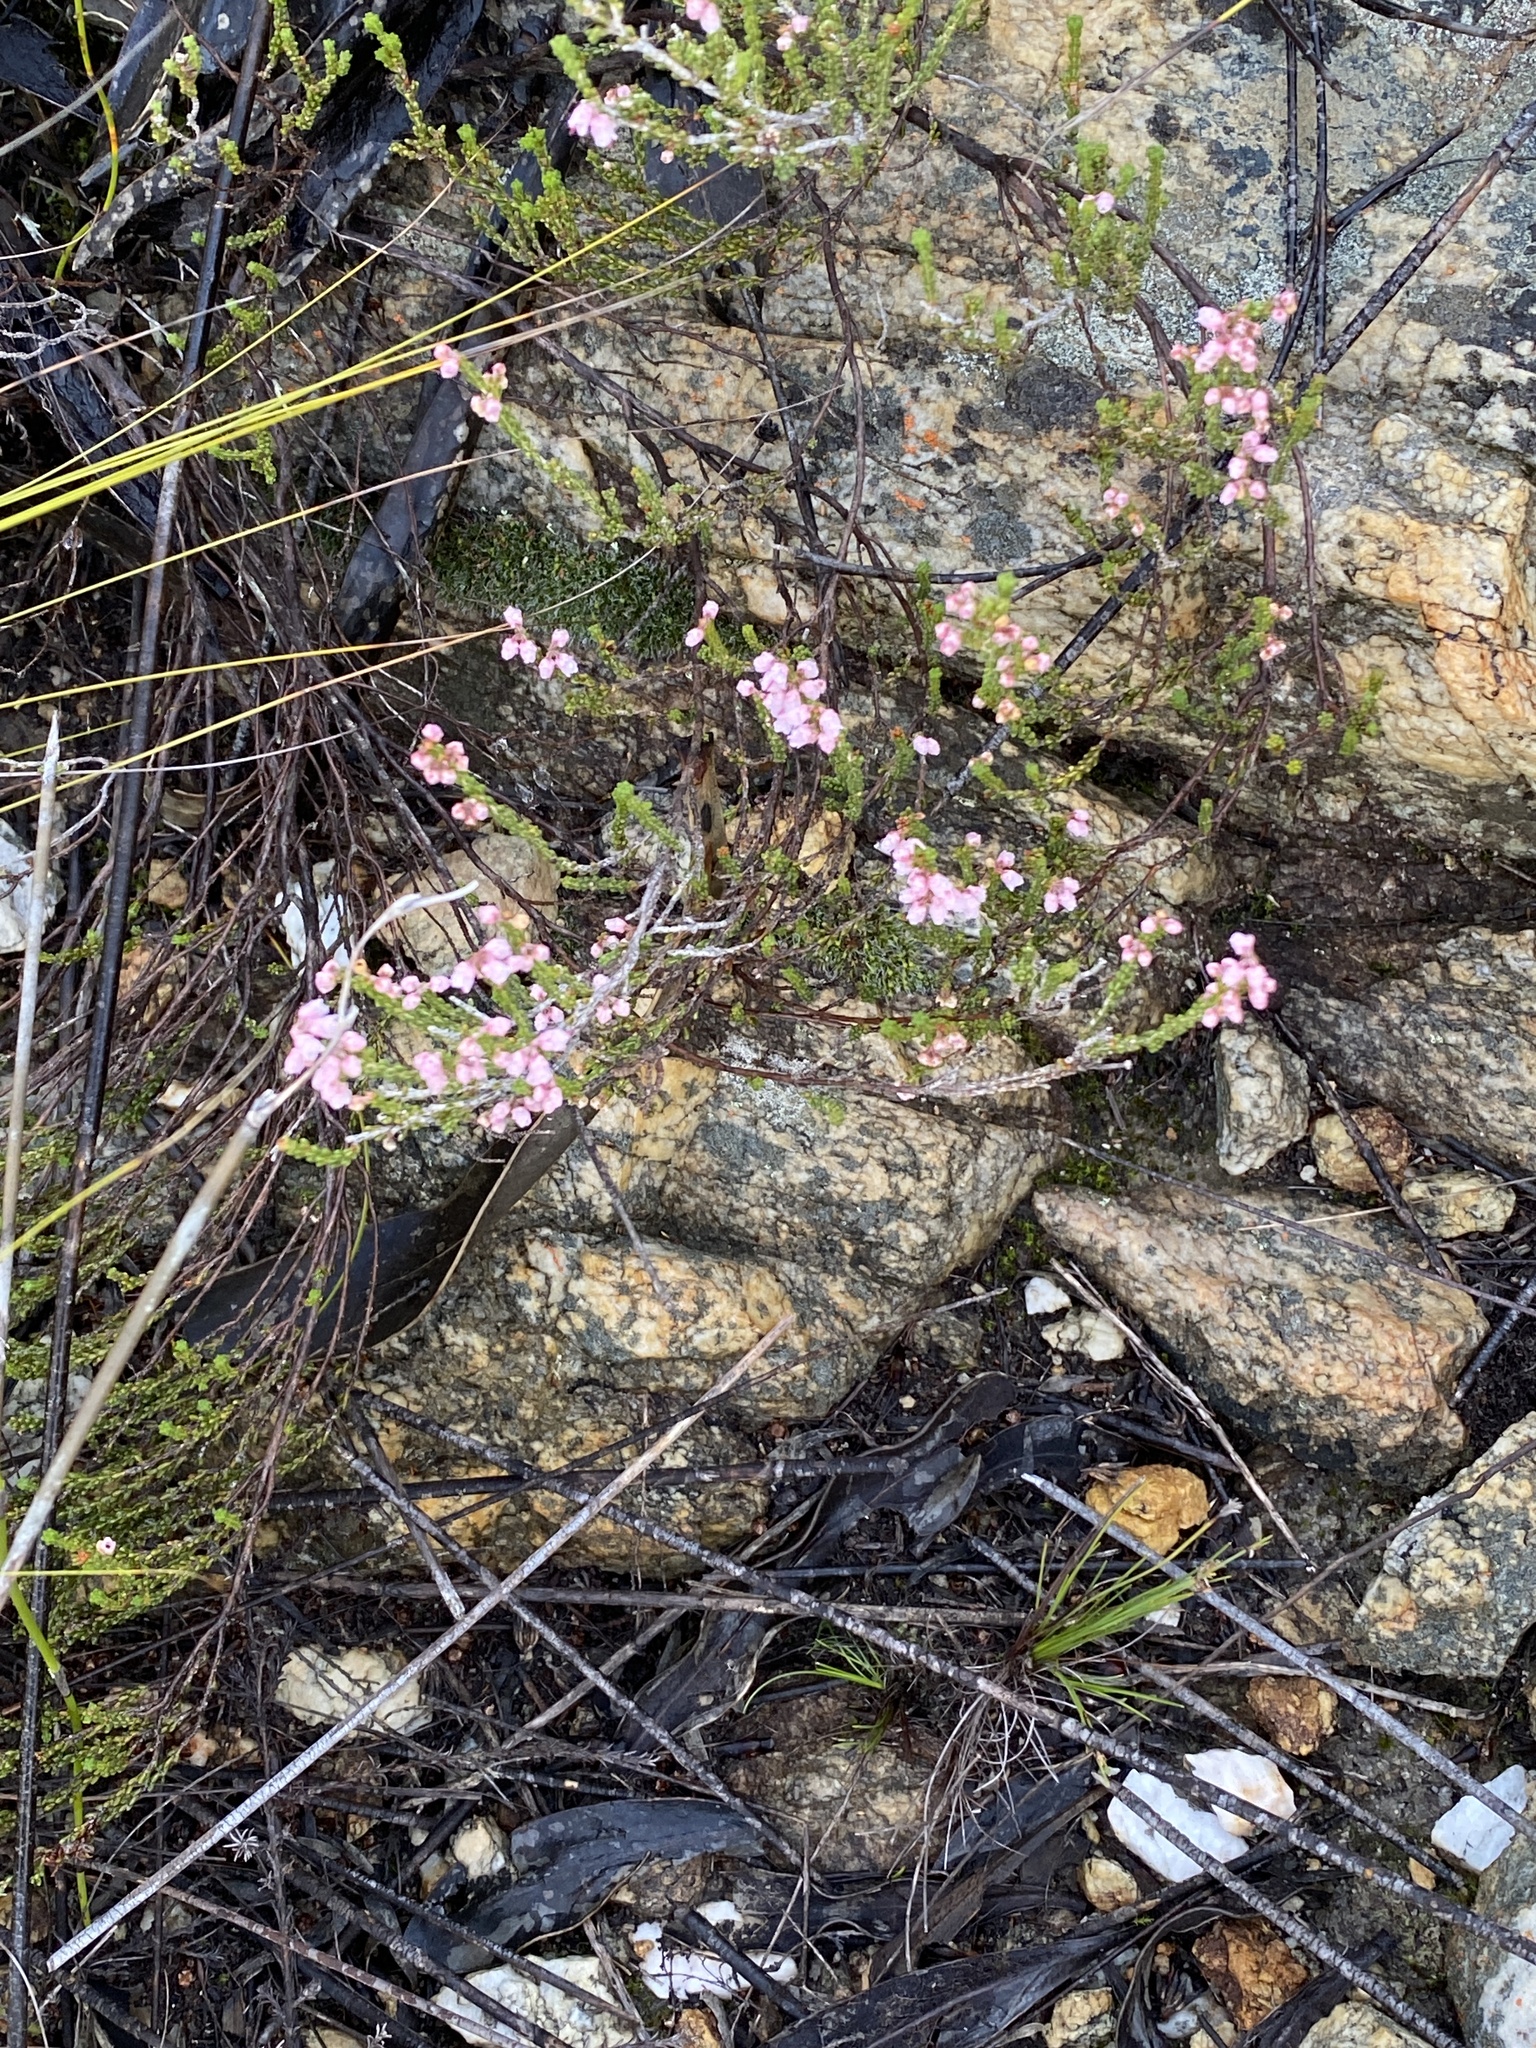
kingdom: Plantae
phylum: Tracheophyta
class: Magnoliopsida
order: Ericales
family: Ericaceae
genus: Erica
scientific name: Erica umbelliflora
